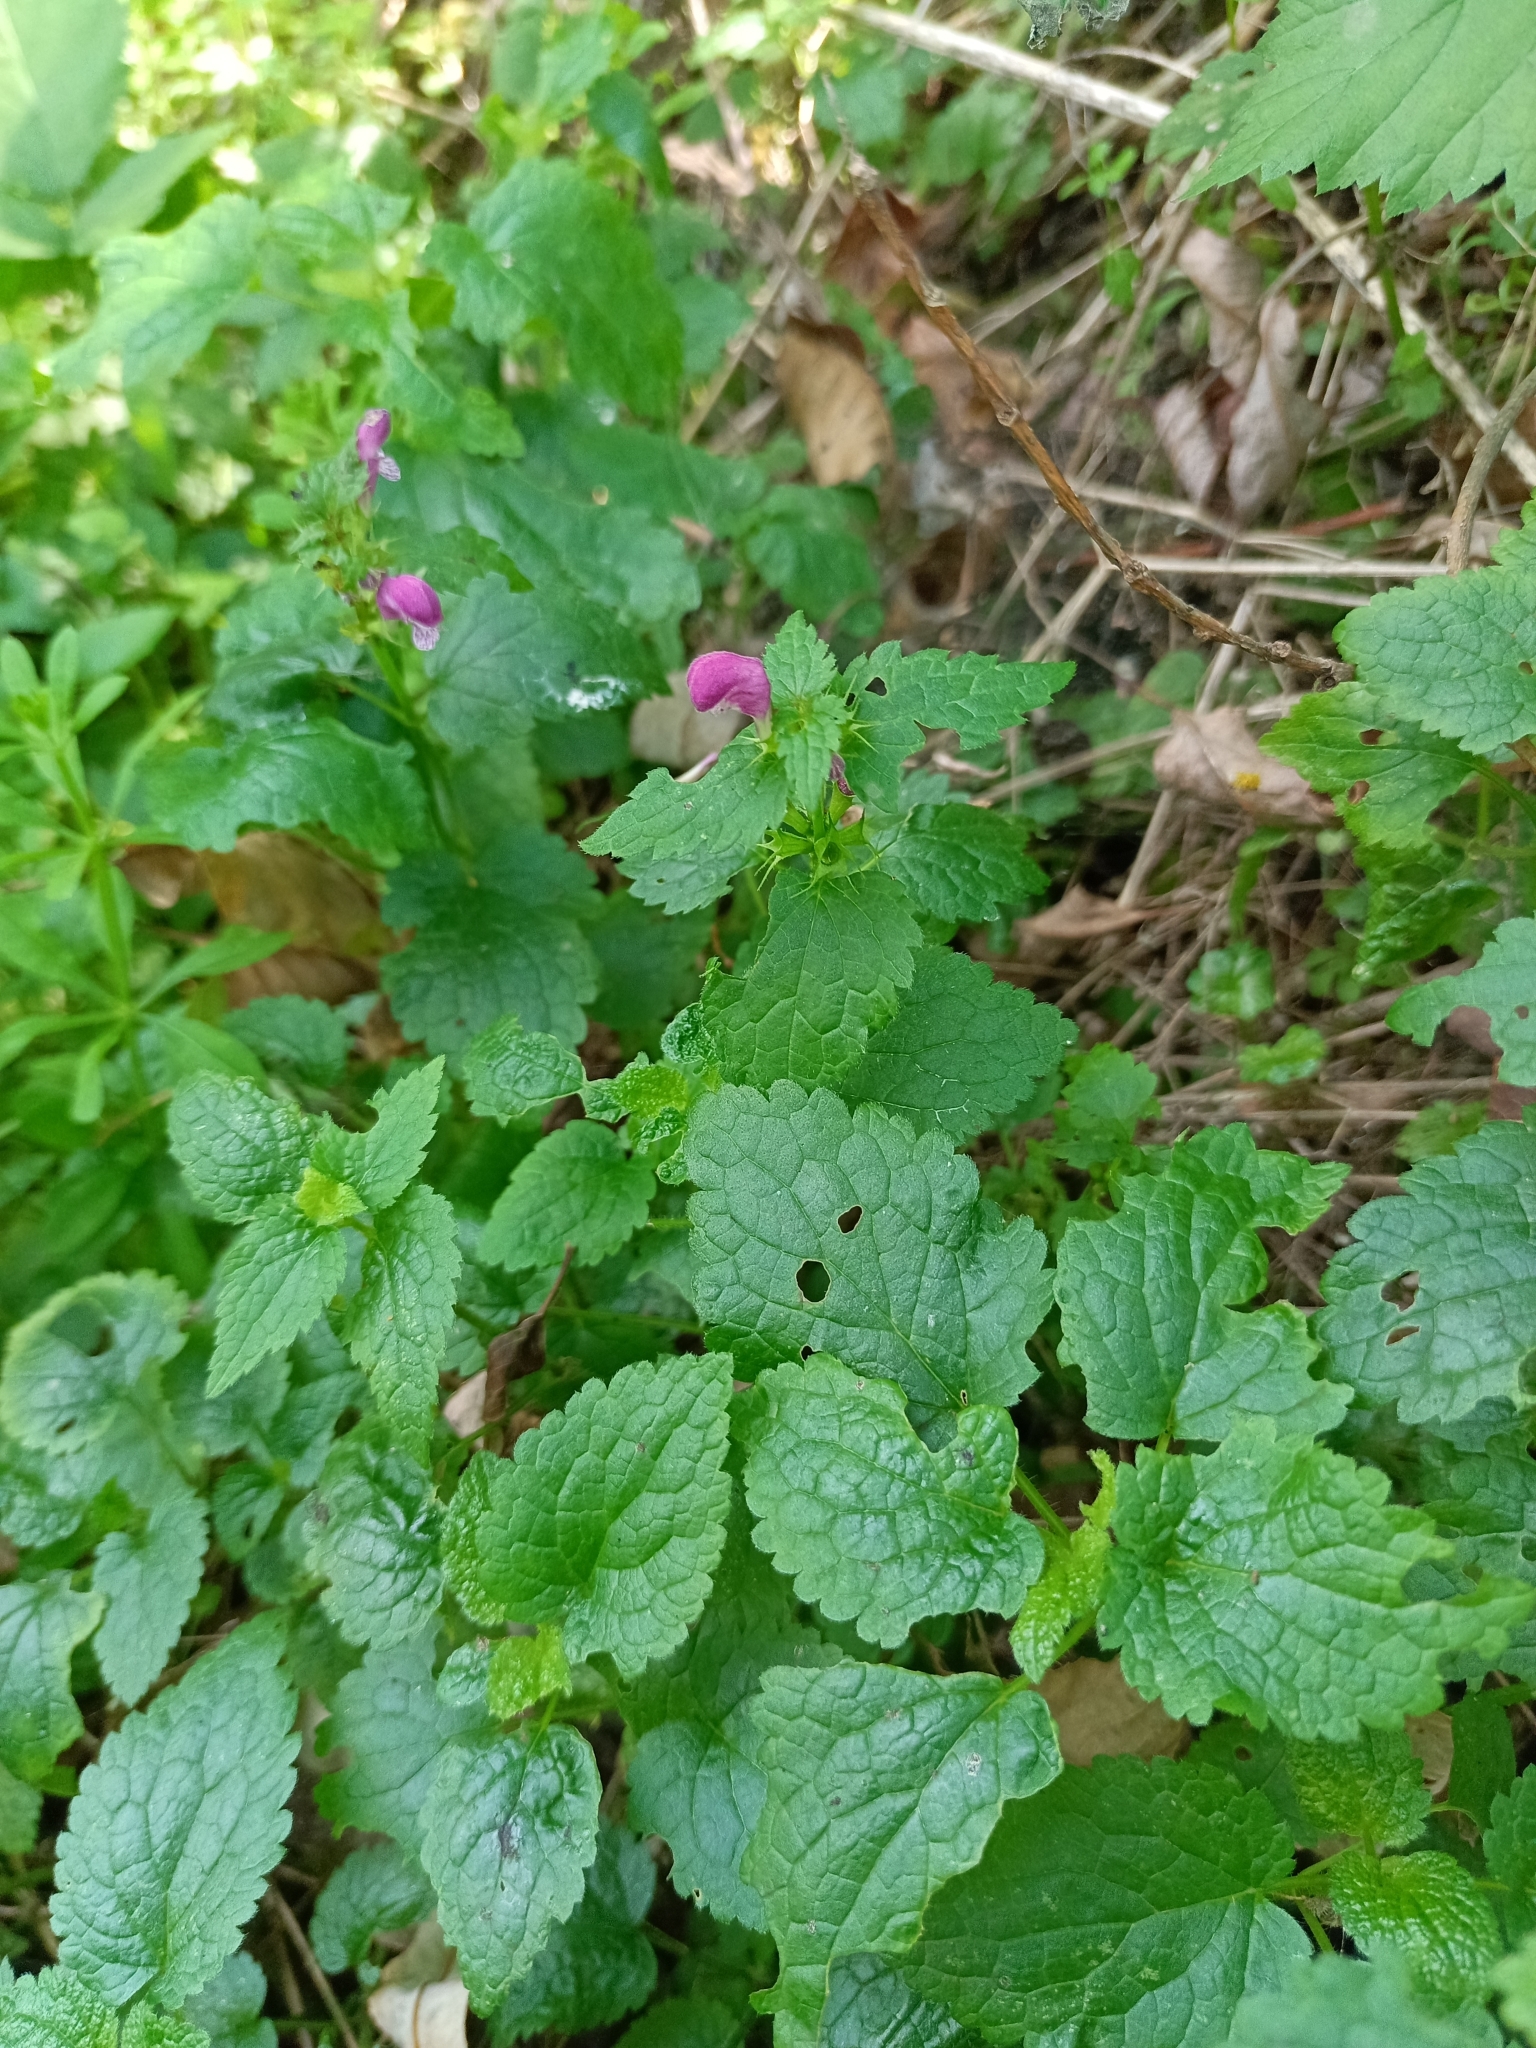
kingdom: Plantae
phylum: Tracheophyta
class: Magnoliopsida
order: Lamiales
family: Lamiaceae
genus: Lamium
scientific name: Lamium maculatum
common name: Spotted dead-nettle
